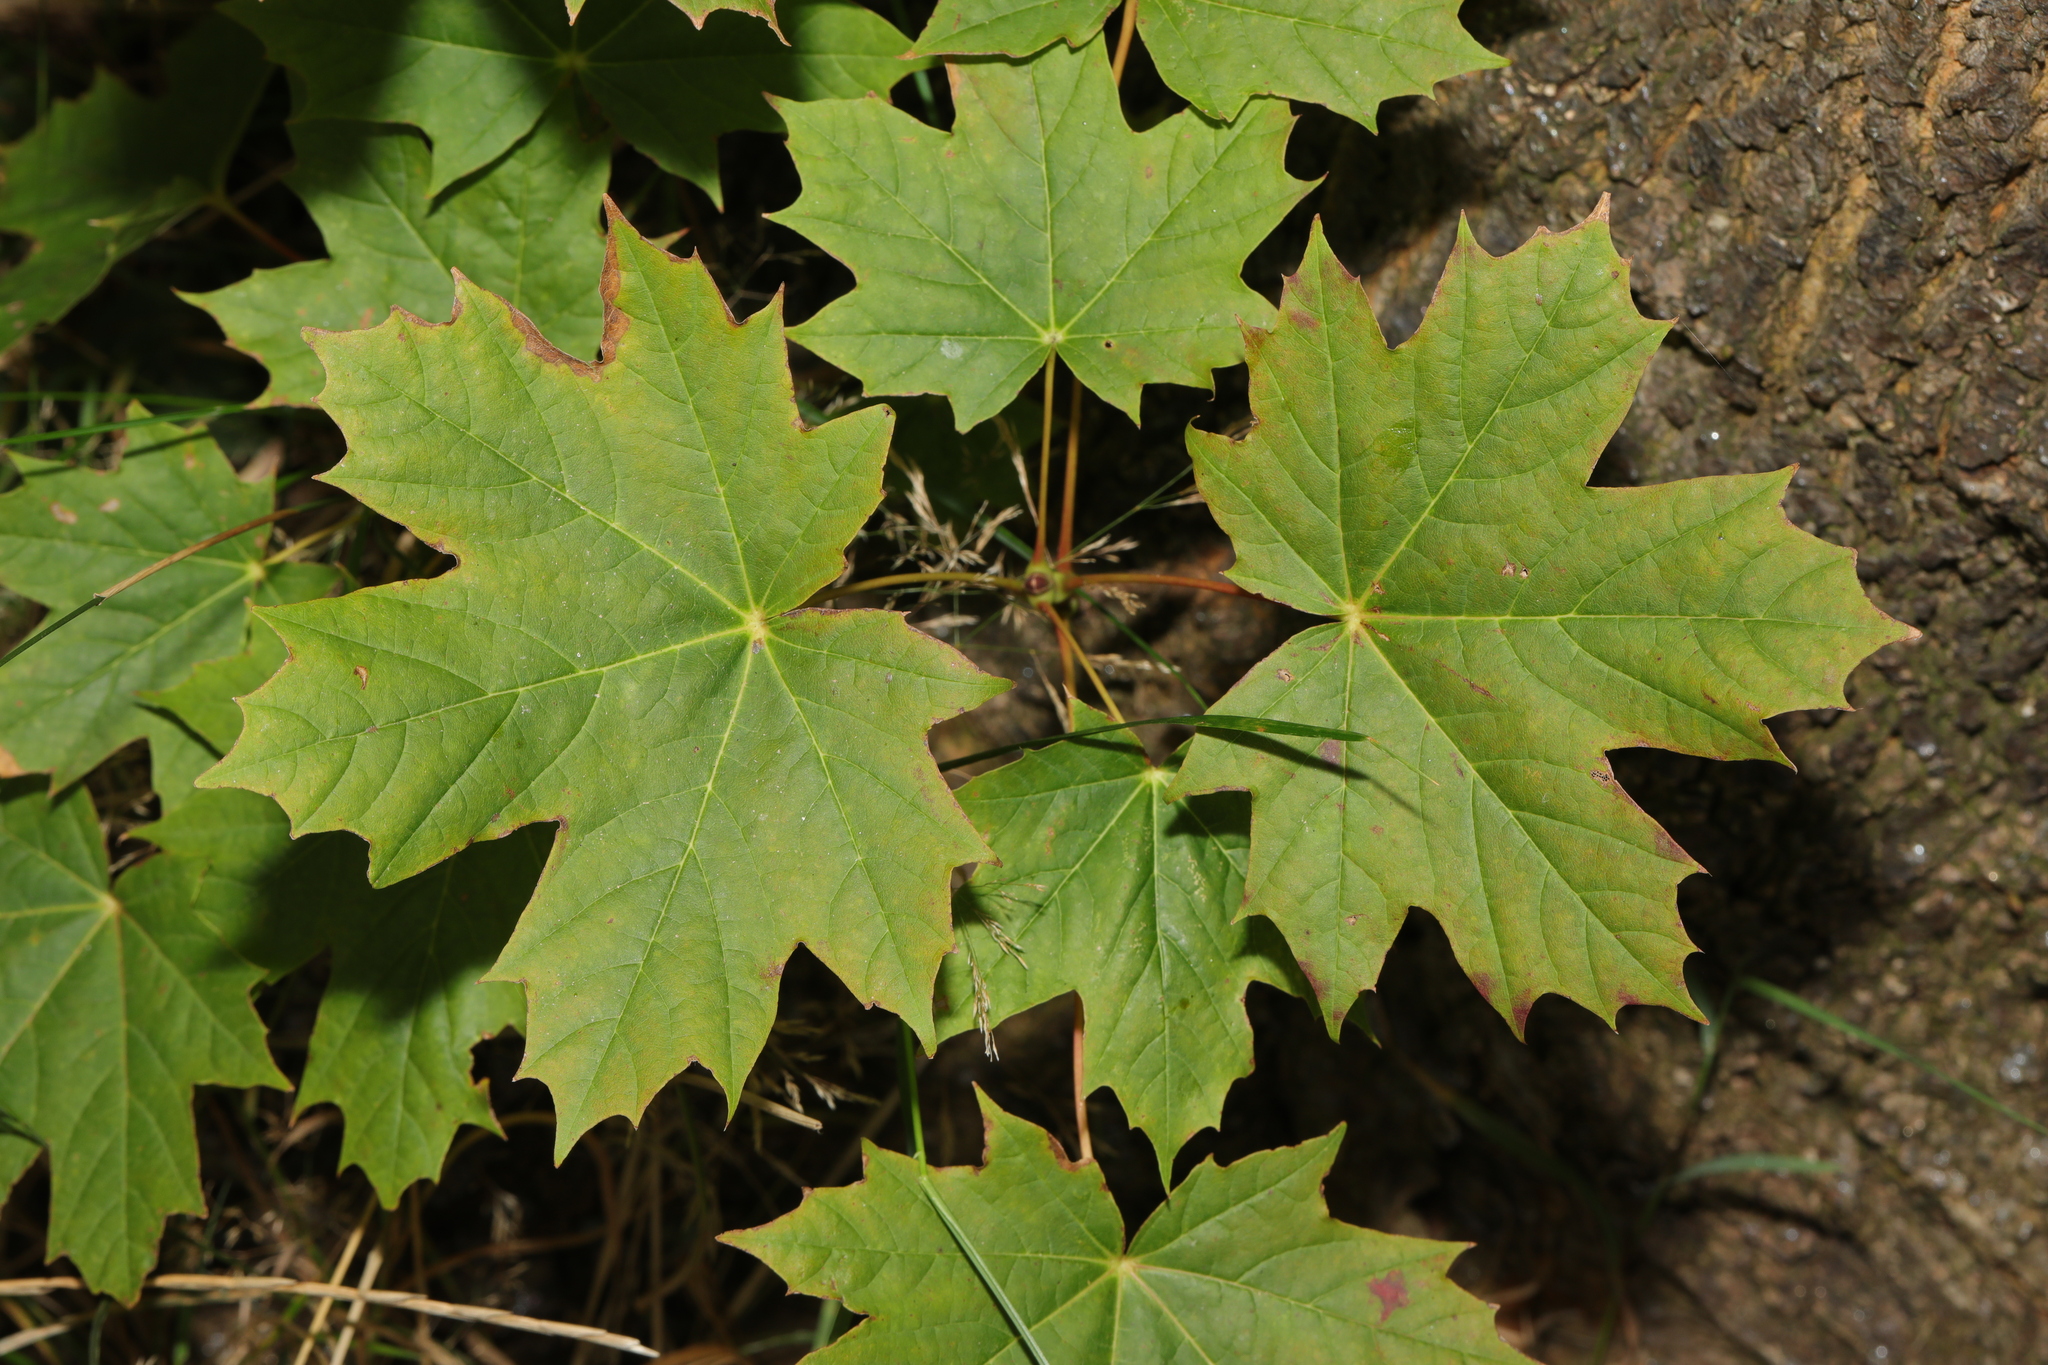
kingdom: Plantae
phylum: Tracheophyta
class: Magnoliopsida
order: Sapindales
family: Sapindaceae
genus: Acer
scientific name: Acer platanoides
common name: Norway maple
